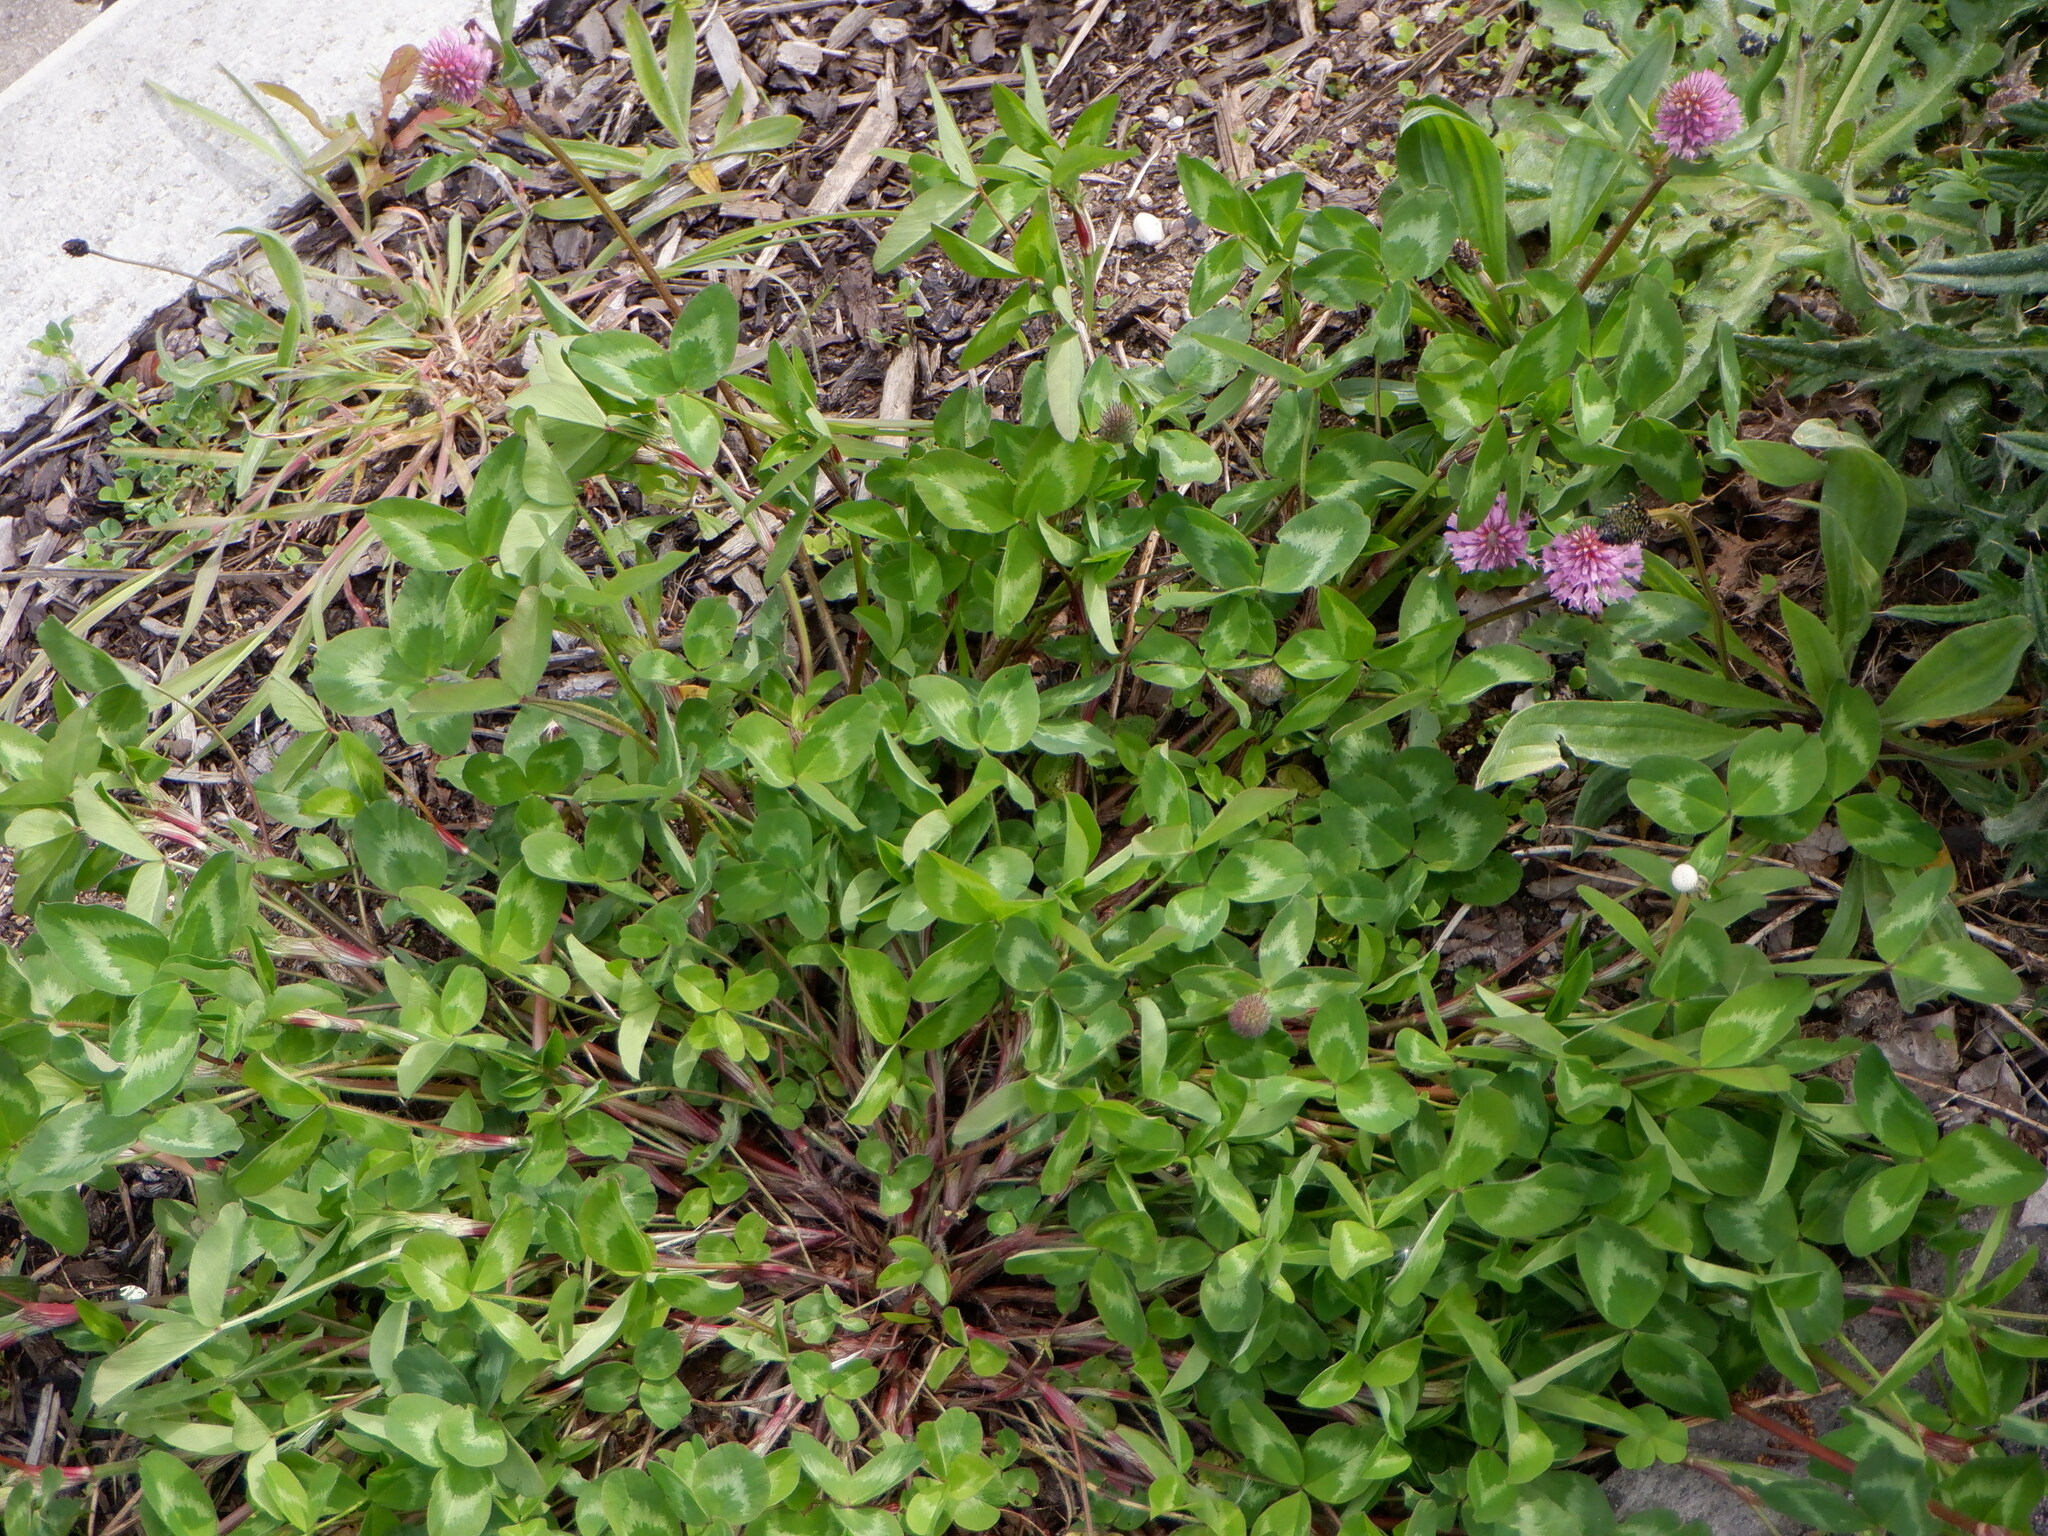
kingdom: Plantae
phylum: Tracheophyta
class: Magnoliopsida
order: Fabales
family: Fabaceae
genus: Trifolium
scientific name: Trifolium pratense
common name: Red clover
